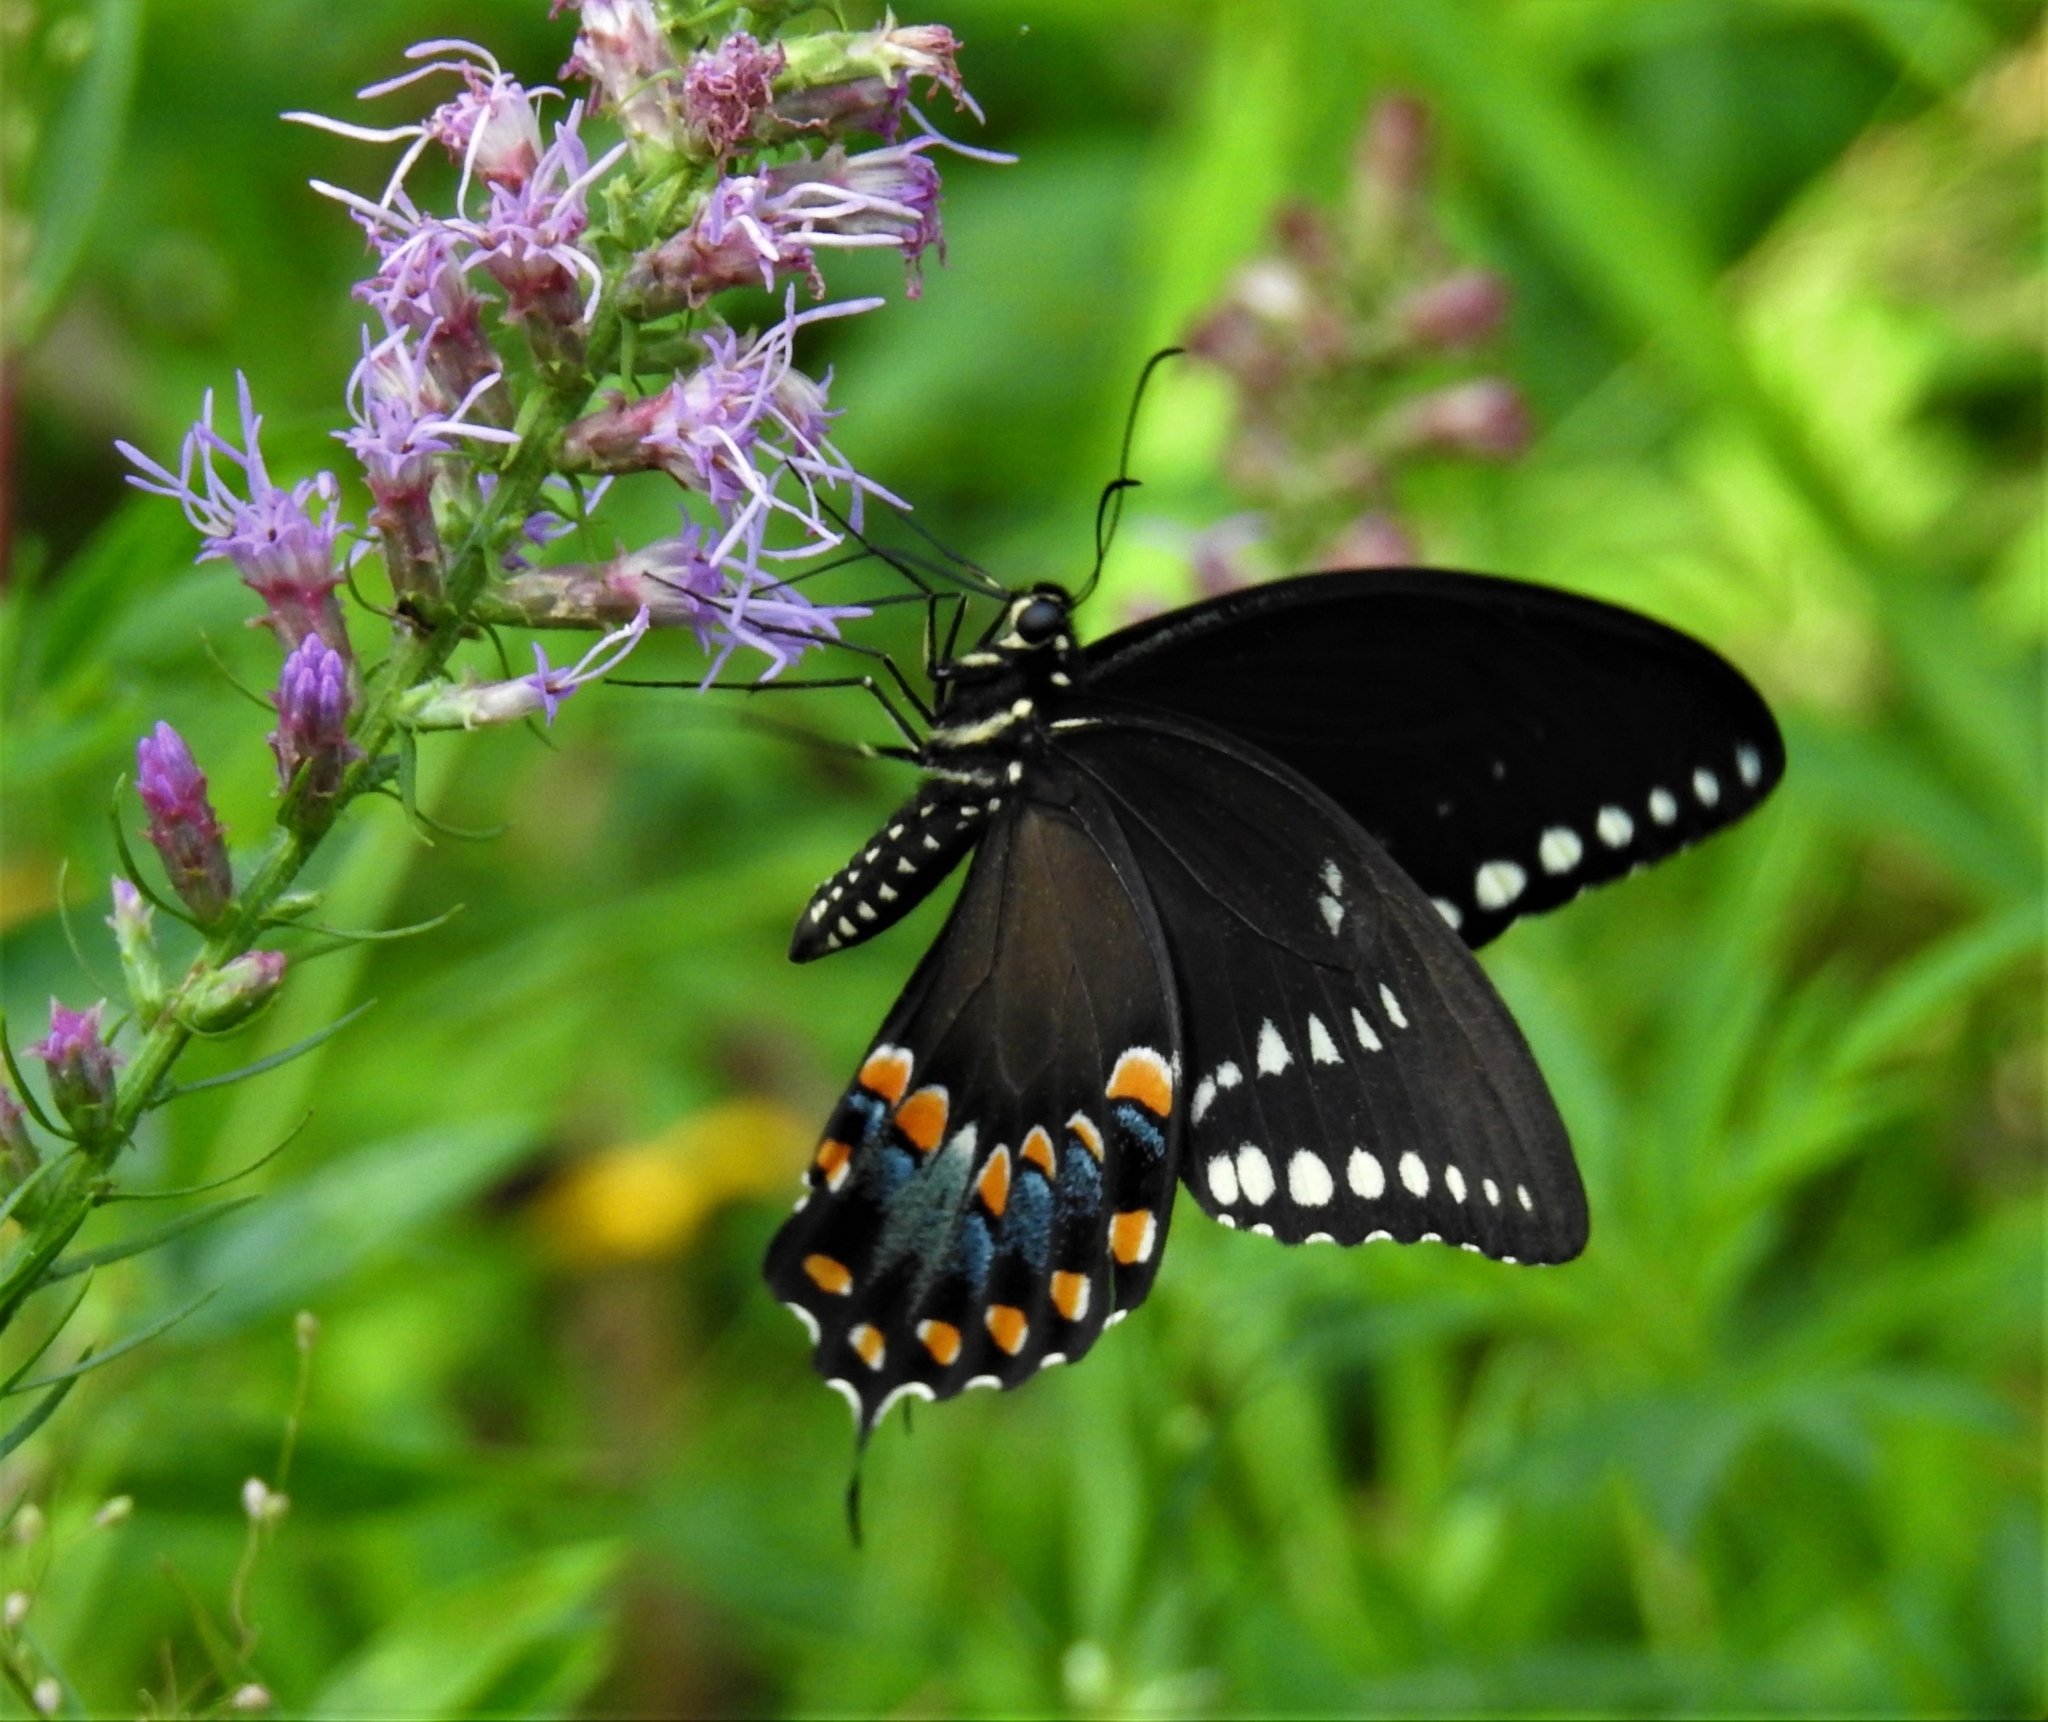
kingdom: Animalia
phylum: Arthropoda
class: Insecta
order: Lepidoptera
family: Papilionidae
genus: Papilio
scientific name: Papilio troilus
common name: Spicebush swallowtail
